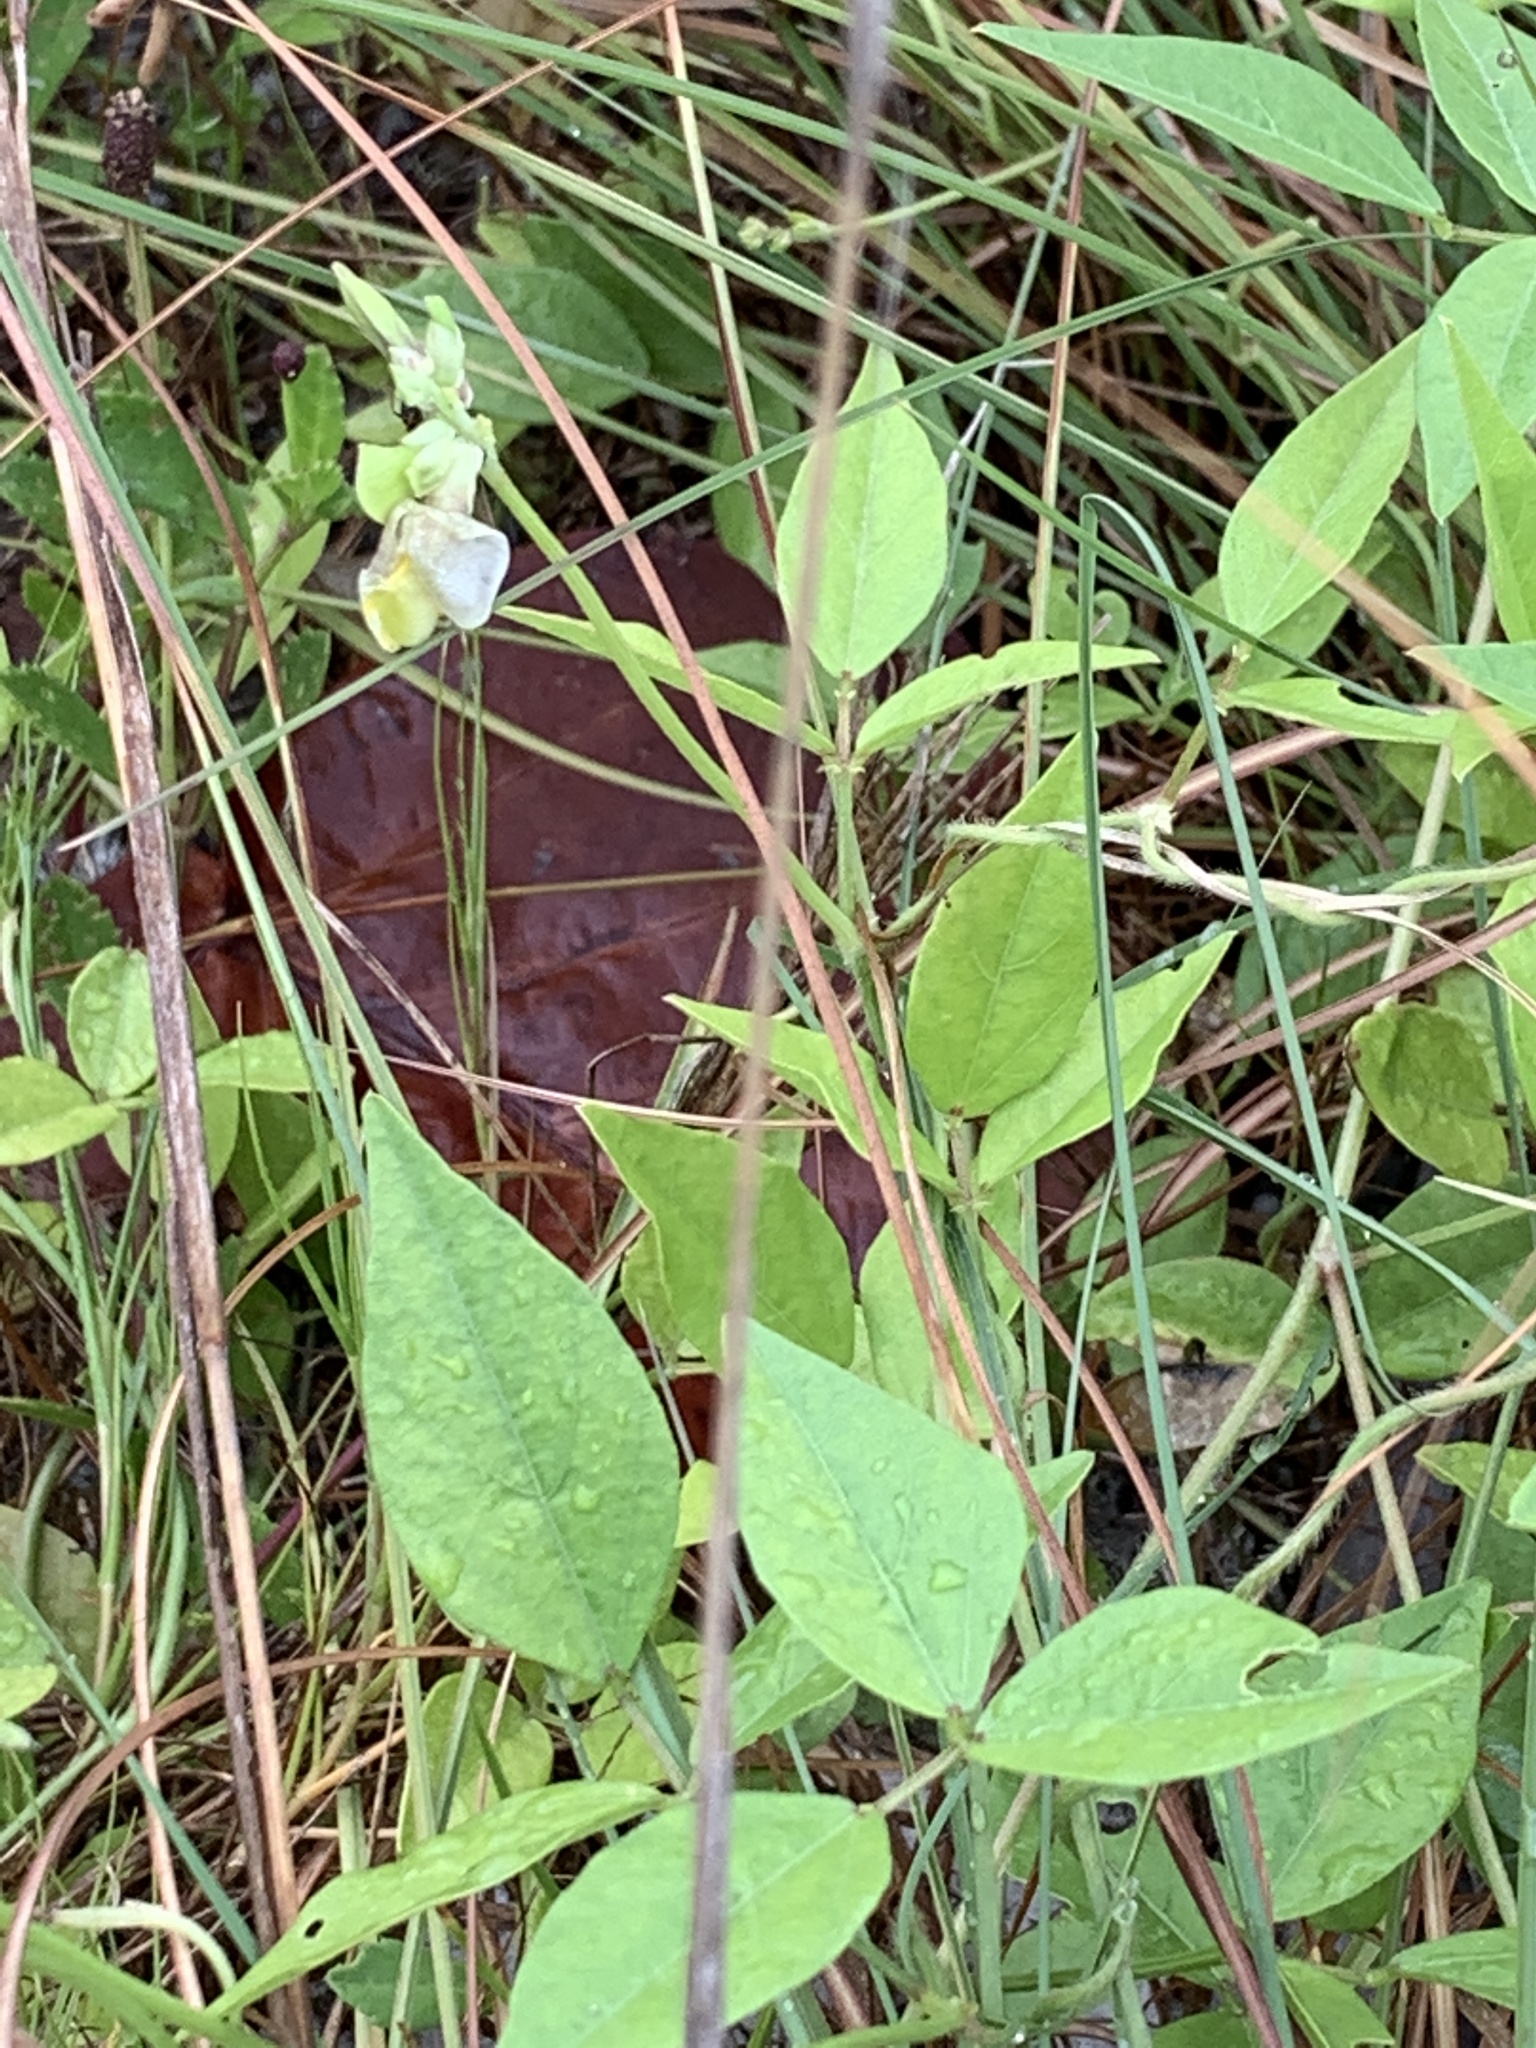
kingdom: Plantae
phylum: Tracheophyta
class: Magnoliopsida
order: Fabales
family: Fabaceae
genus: Vigna
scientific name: Vigna luteola
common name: Hairypod cowpea
